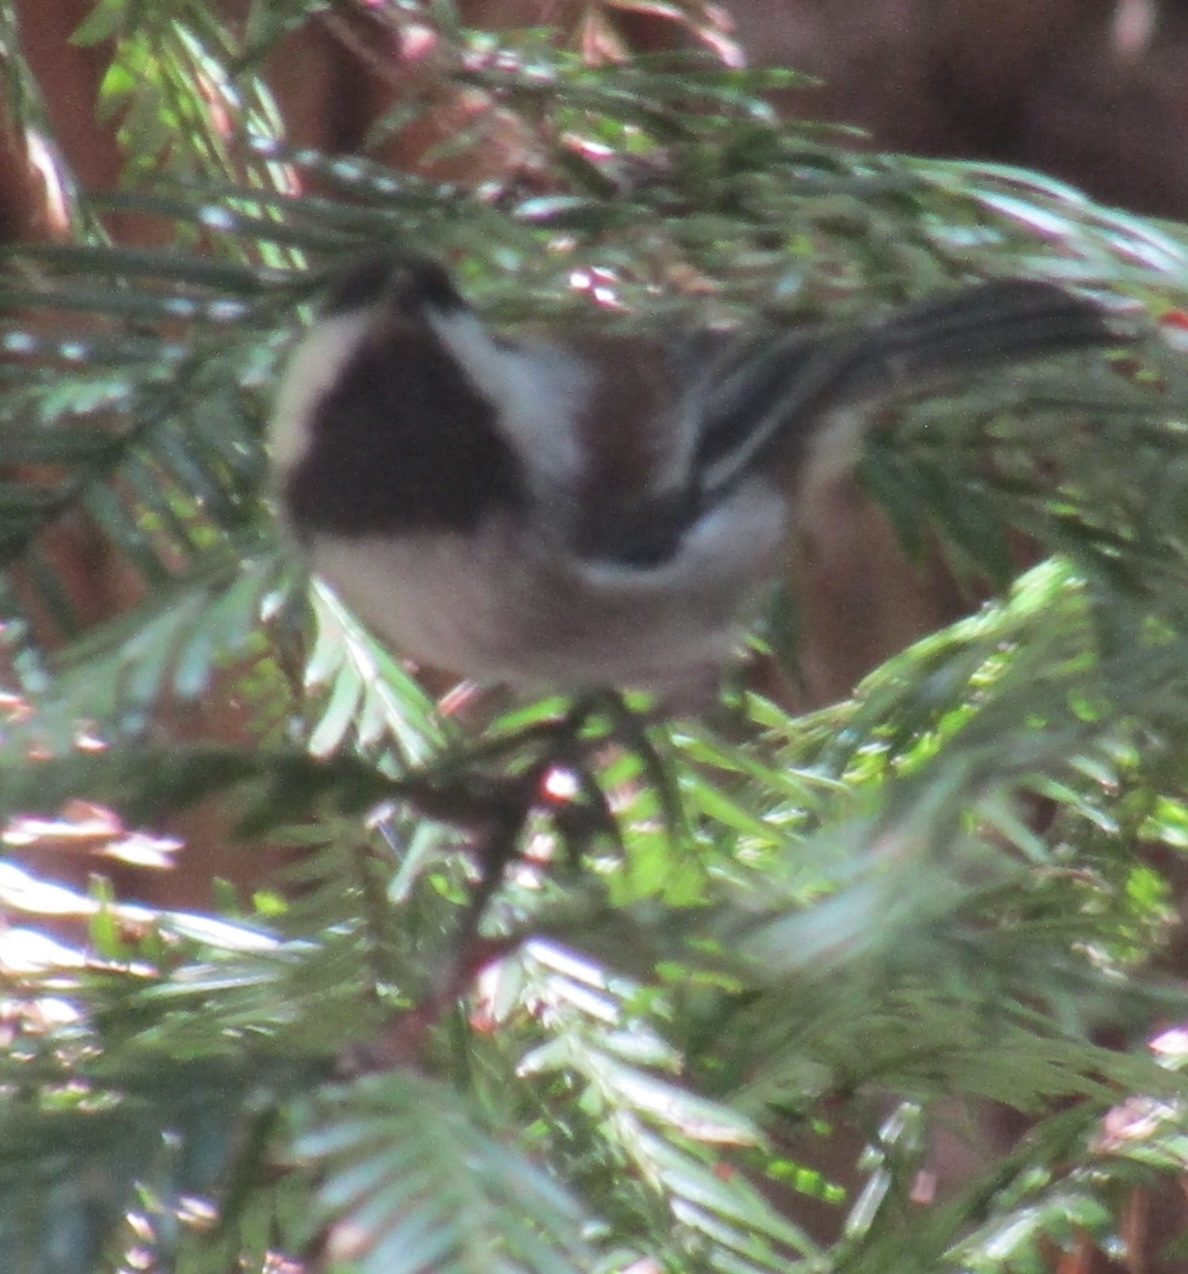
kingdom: Animalia
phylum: Chordata
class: Aves
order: Passeriformes
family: Paridae
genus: Poecile
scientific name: Poecile rufescens
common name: Chestnut-backed chickadee
